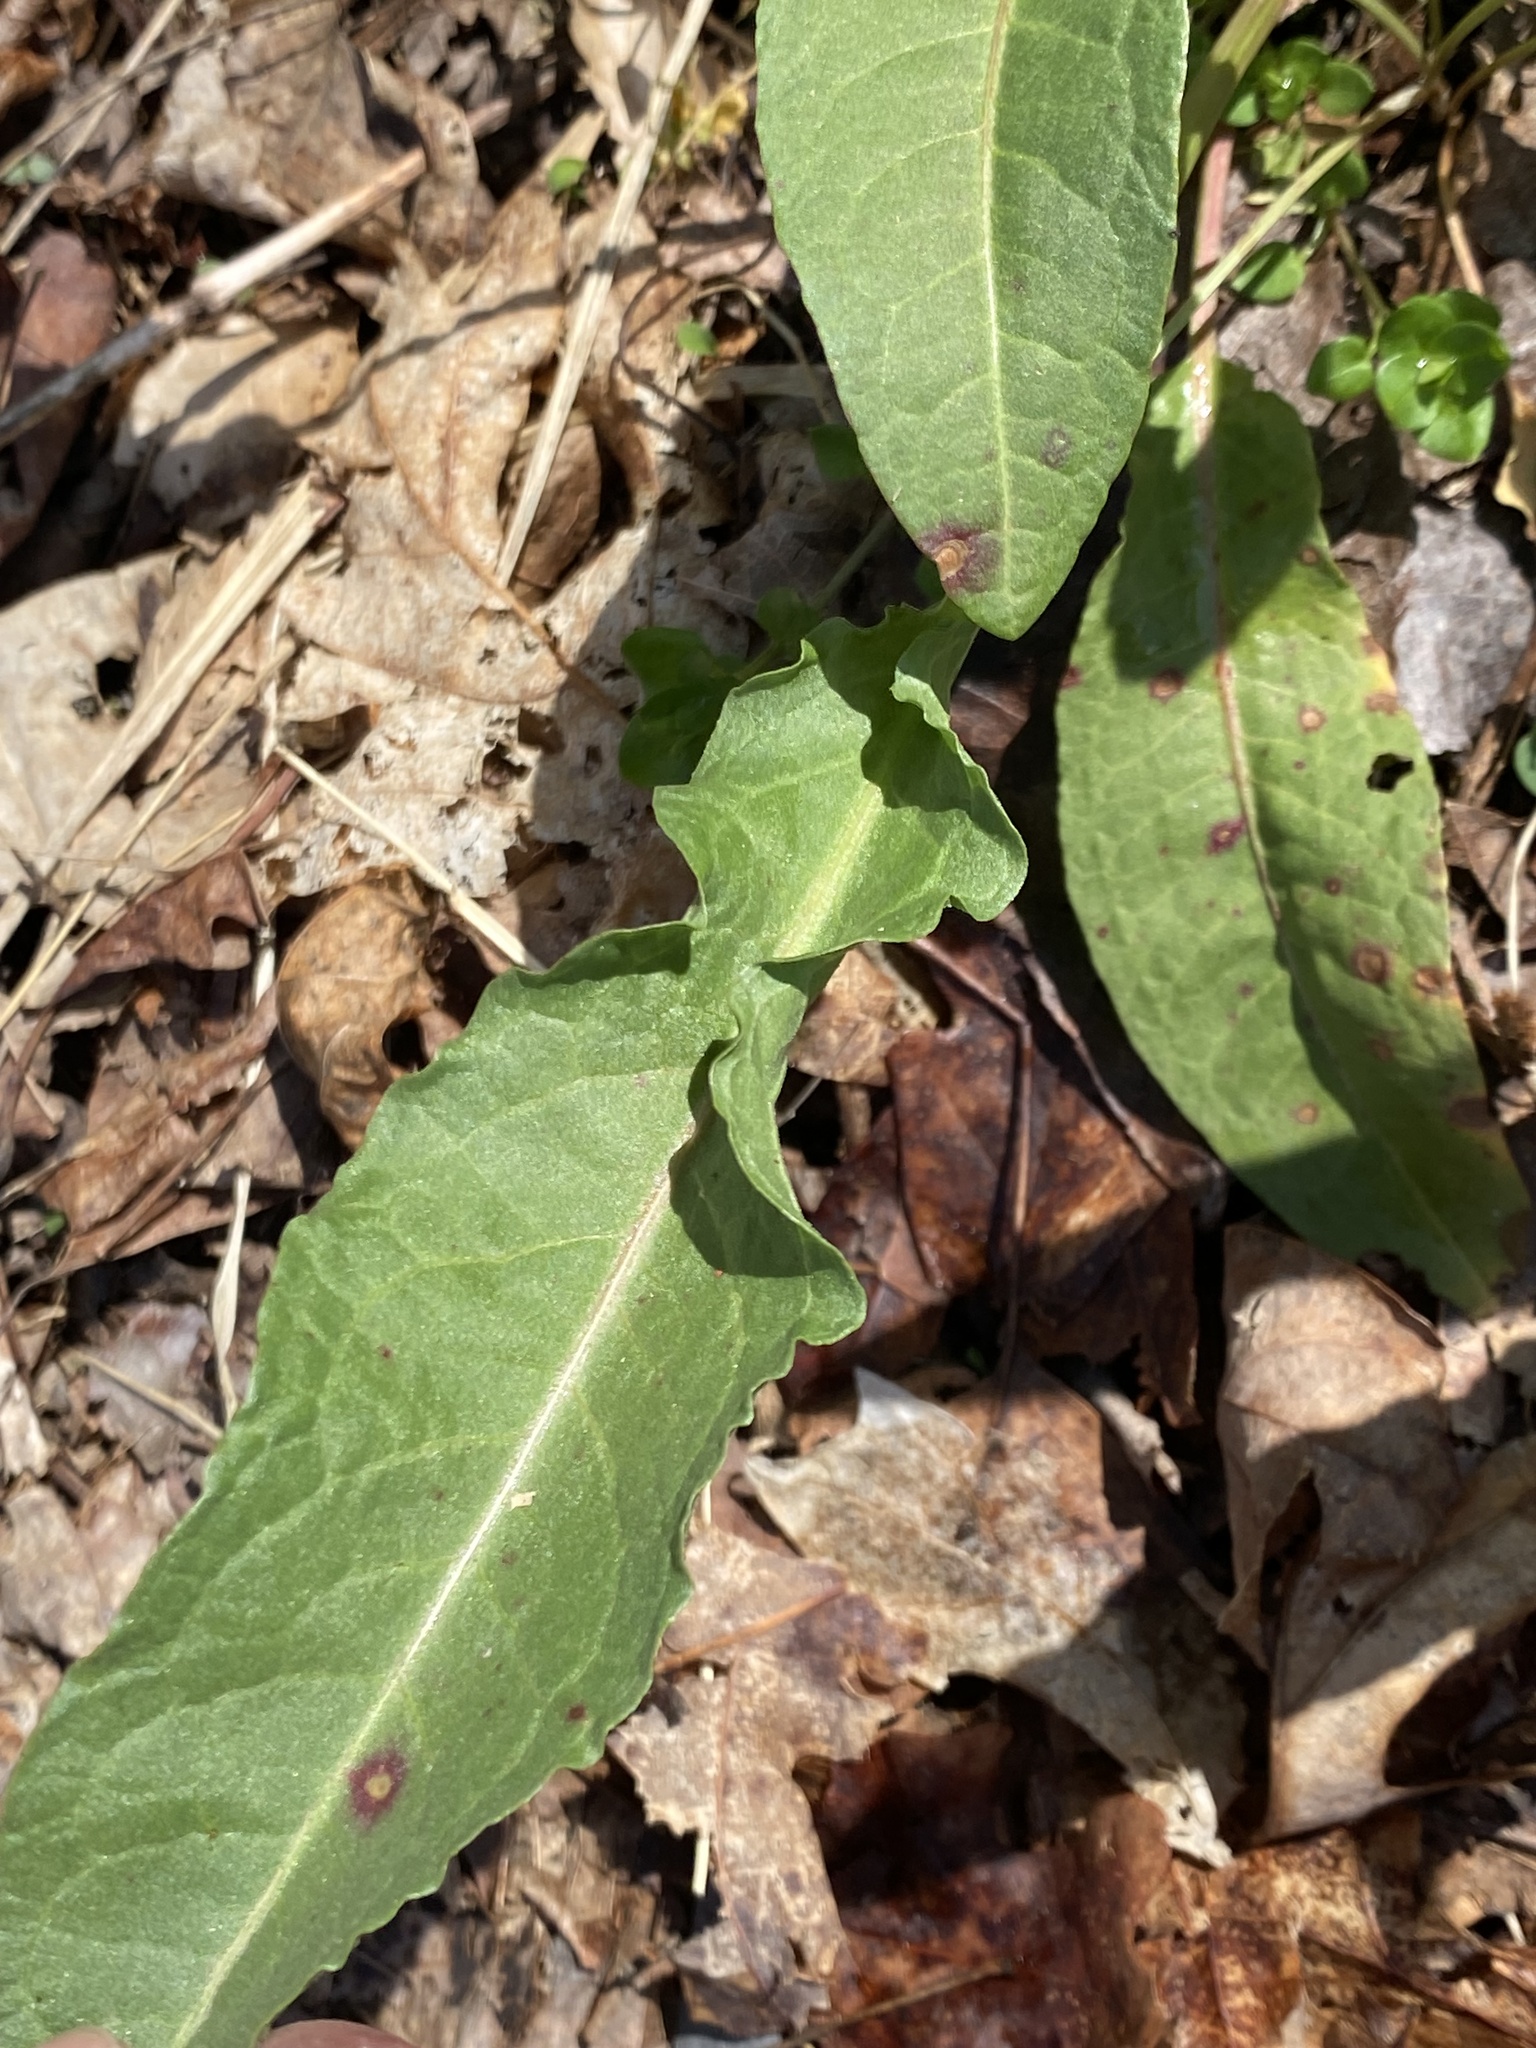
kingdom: Plantae
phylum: Tracheophyta
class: Magnoliopsida
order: Caryophyllales
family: Polygonaceae
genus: Rumex
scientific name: Rumex crispus
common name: Curled dock
